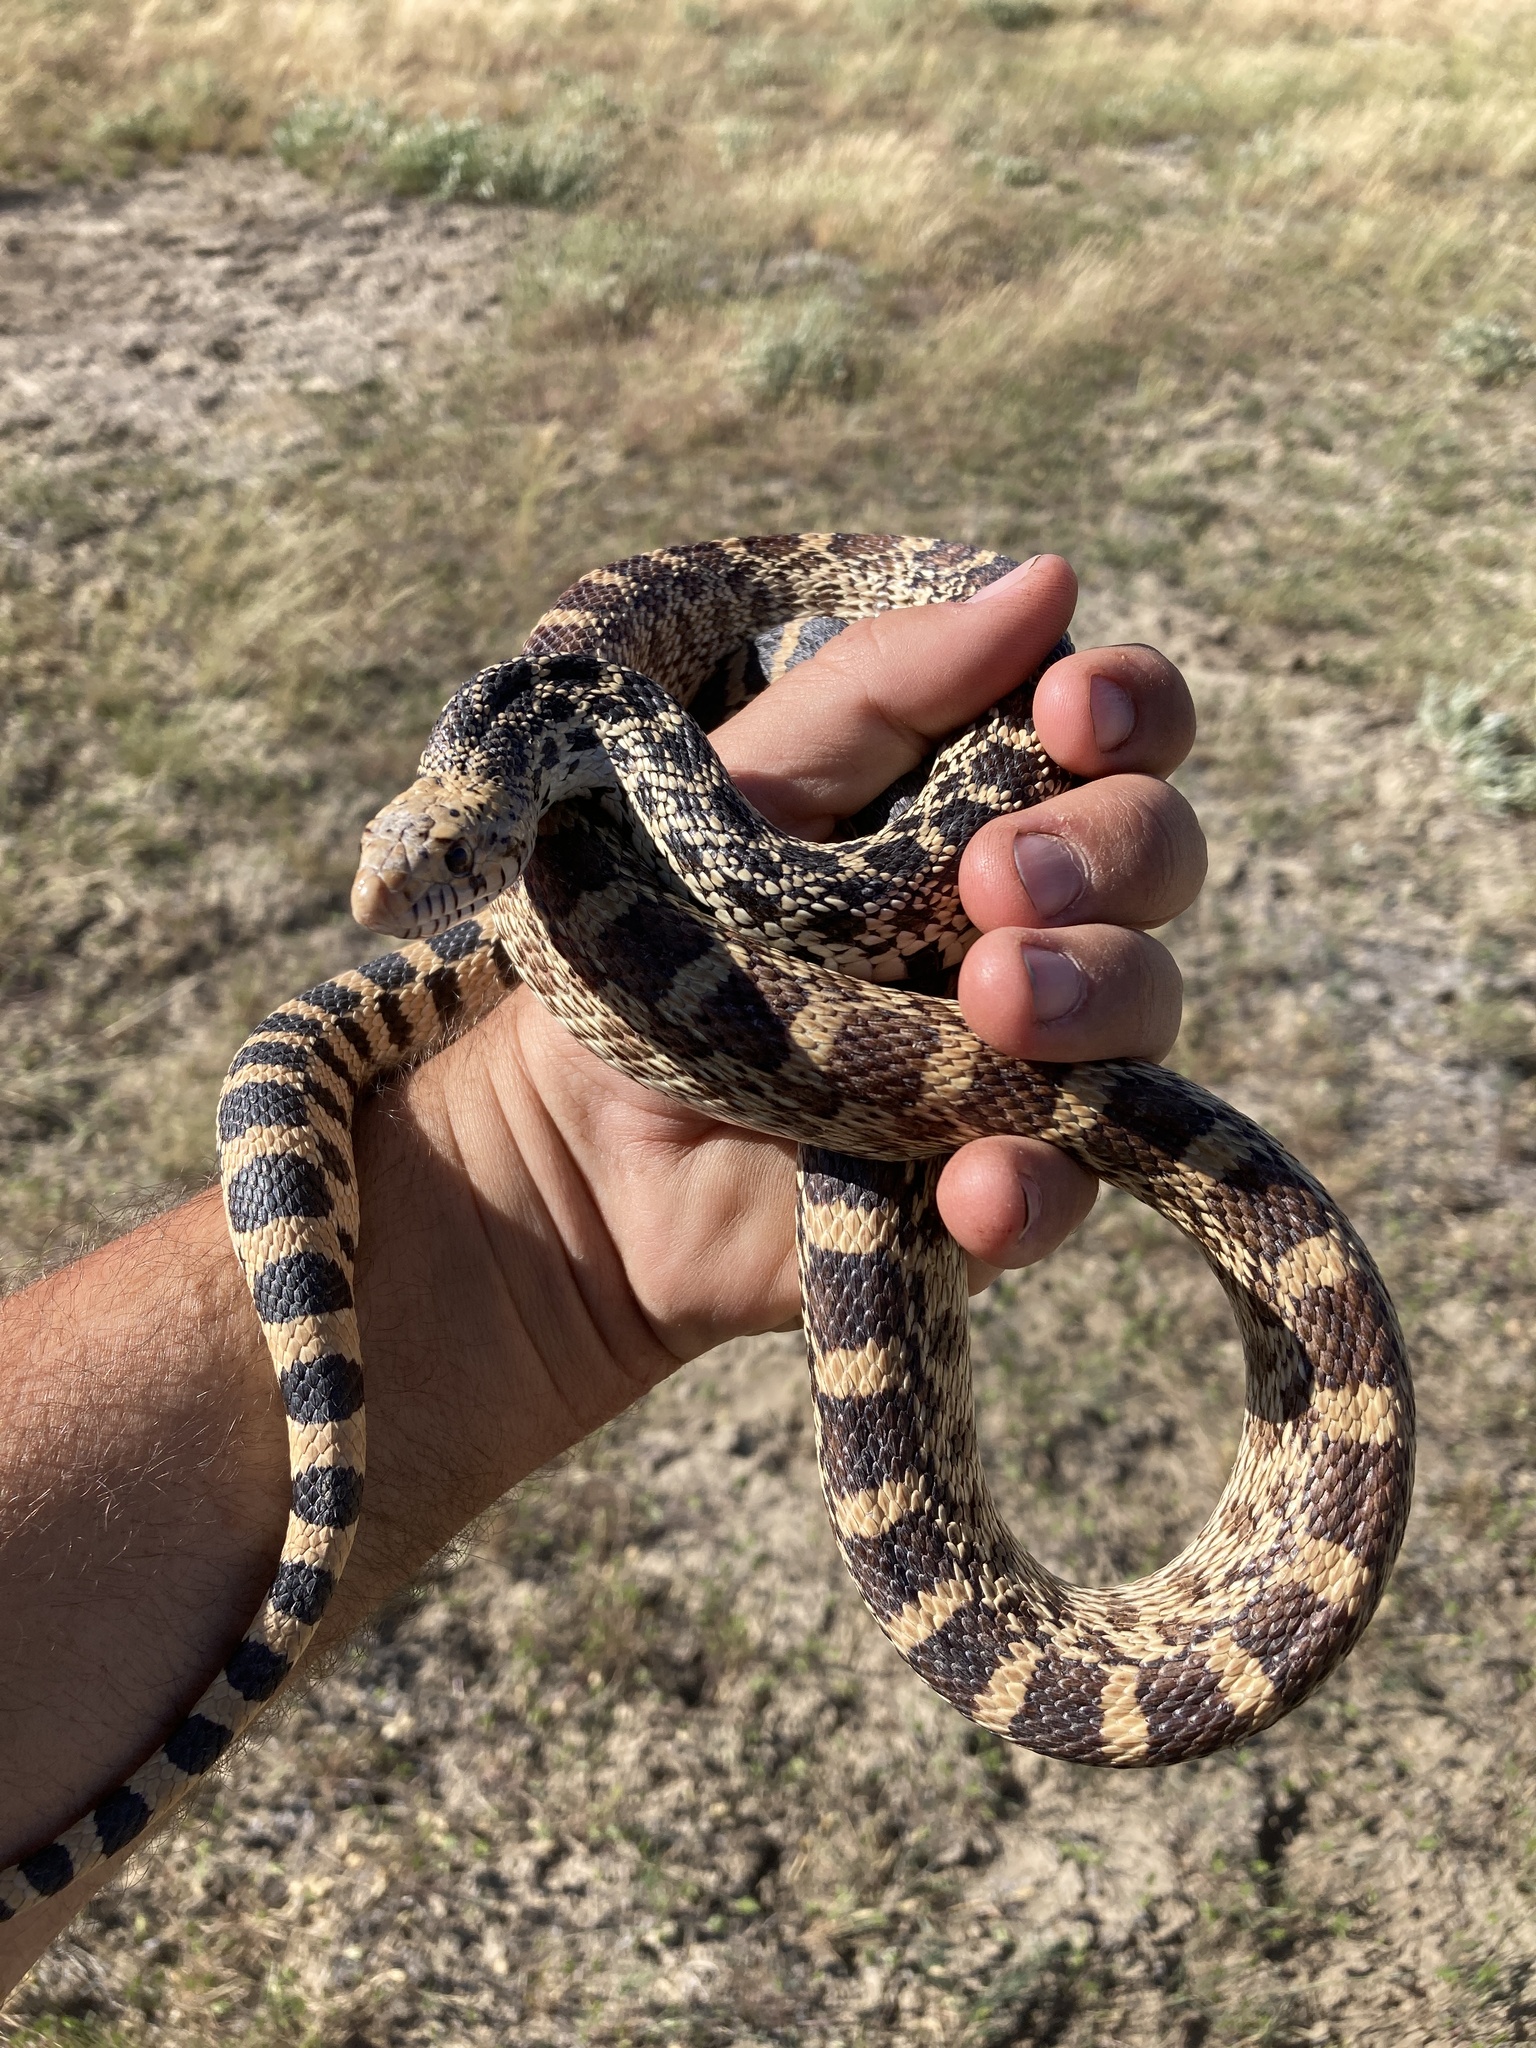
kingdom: Animalia
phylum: Chordata
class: Squamata
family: Colubridae
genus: Pituophis
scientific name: Pituophis catenifer
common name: Gopher snake
